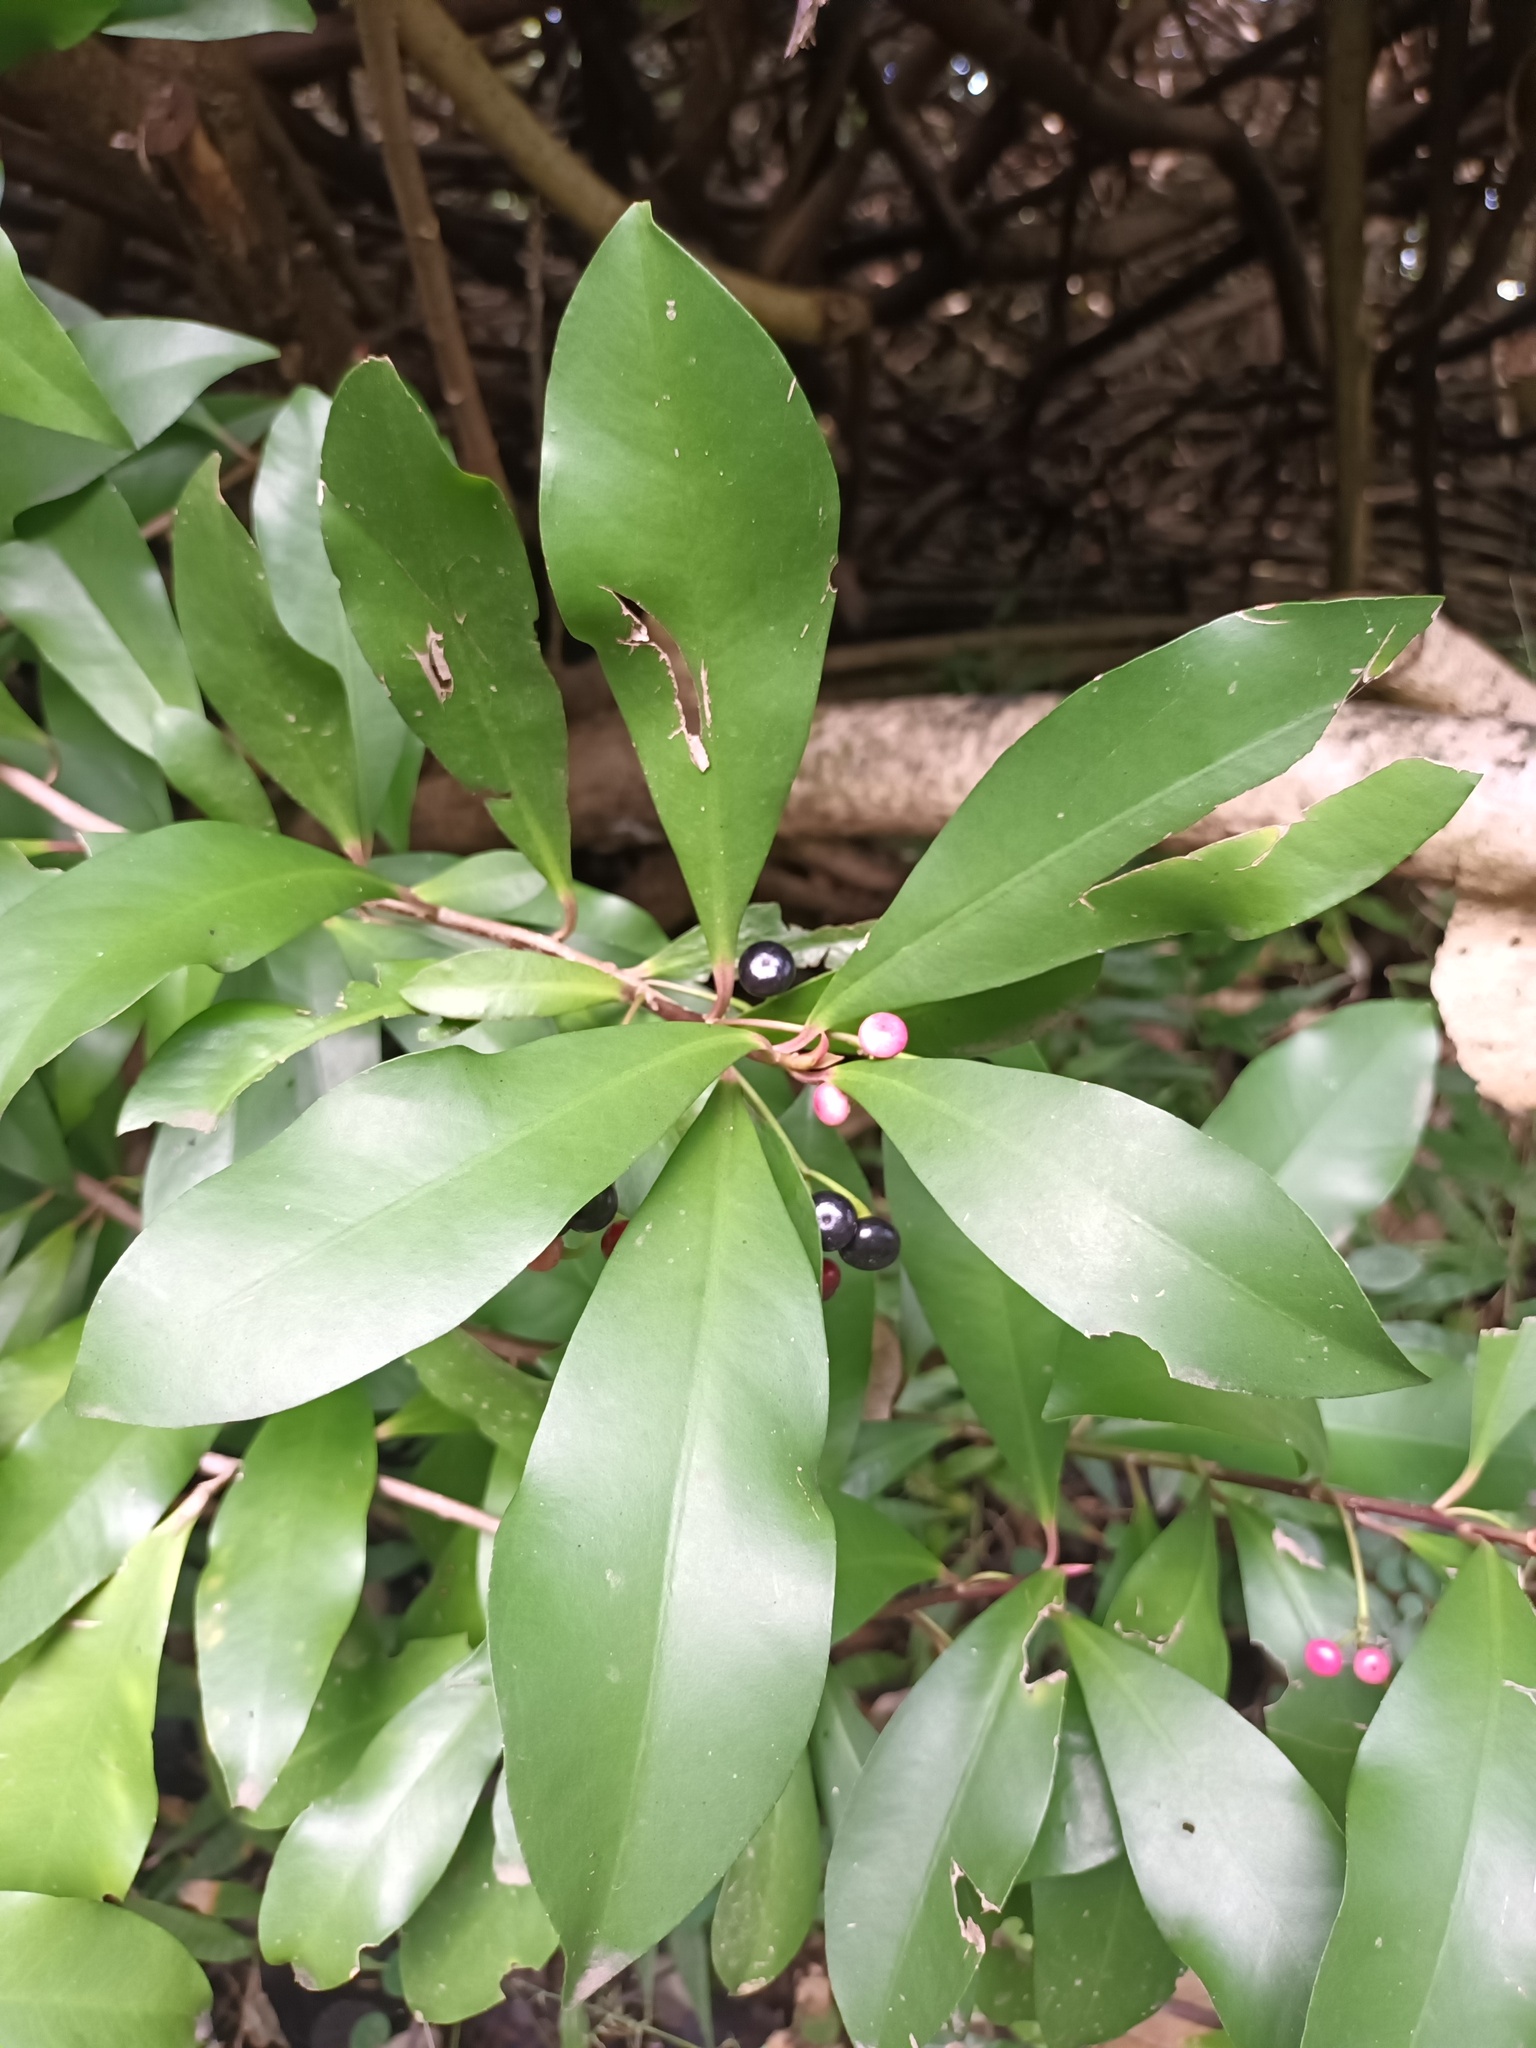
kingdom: Plantae
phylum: Tracheophyta
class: Magnoliopsida
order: Ericales
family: Primulaceae
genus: Ardisia
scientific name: Ardisia elliptica
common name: Shoebutton
